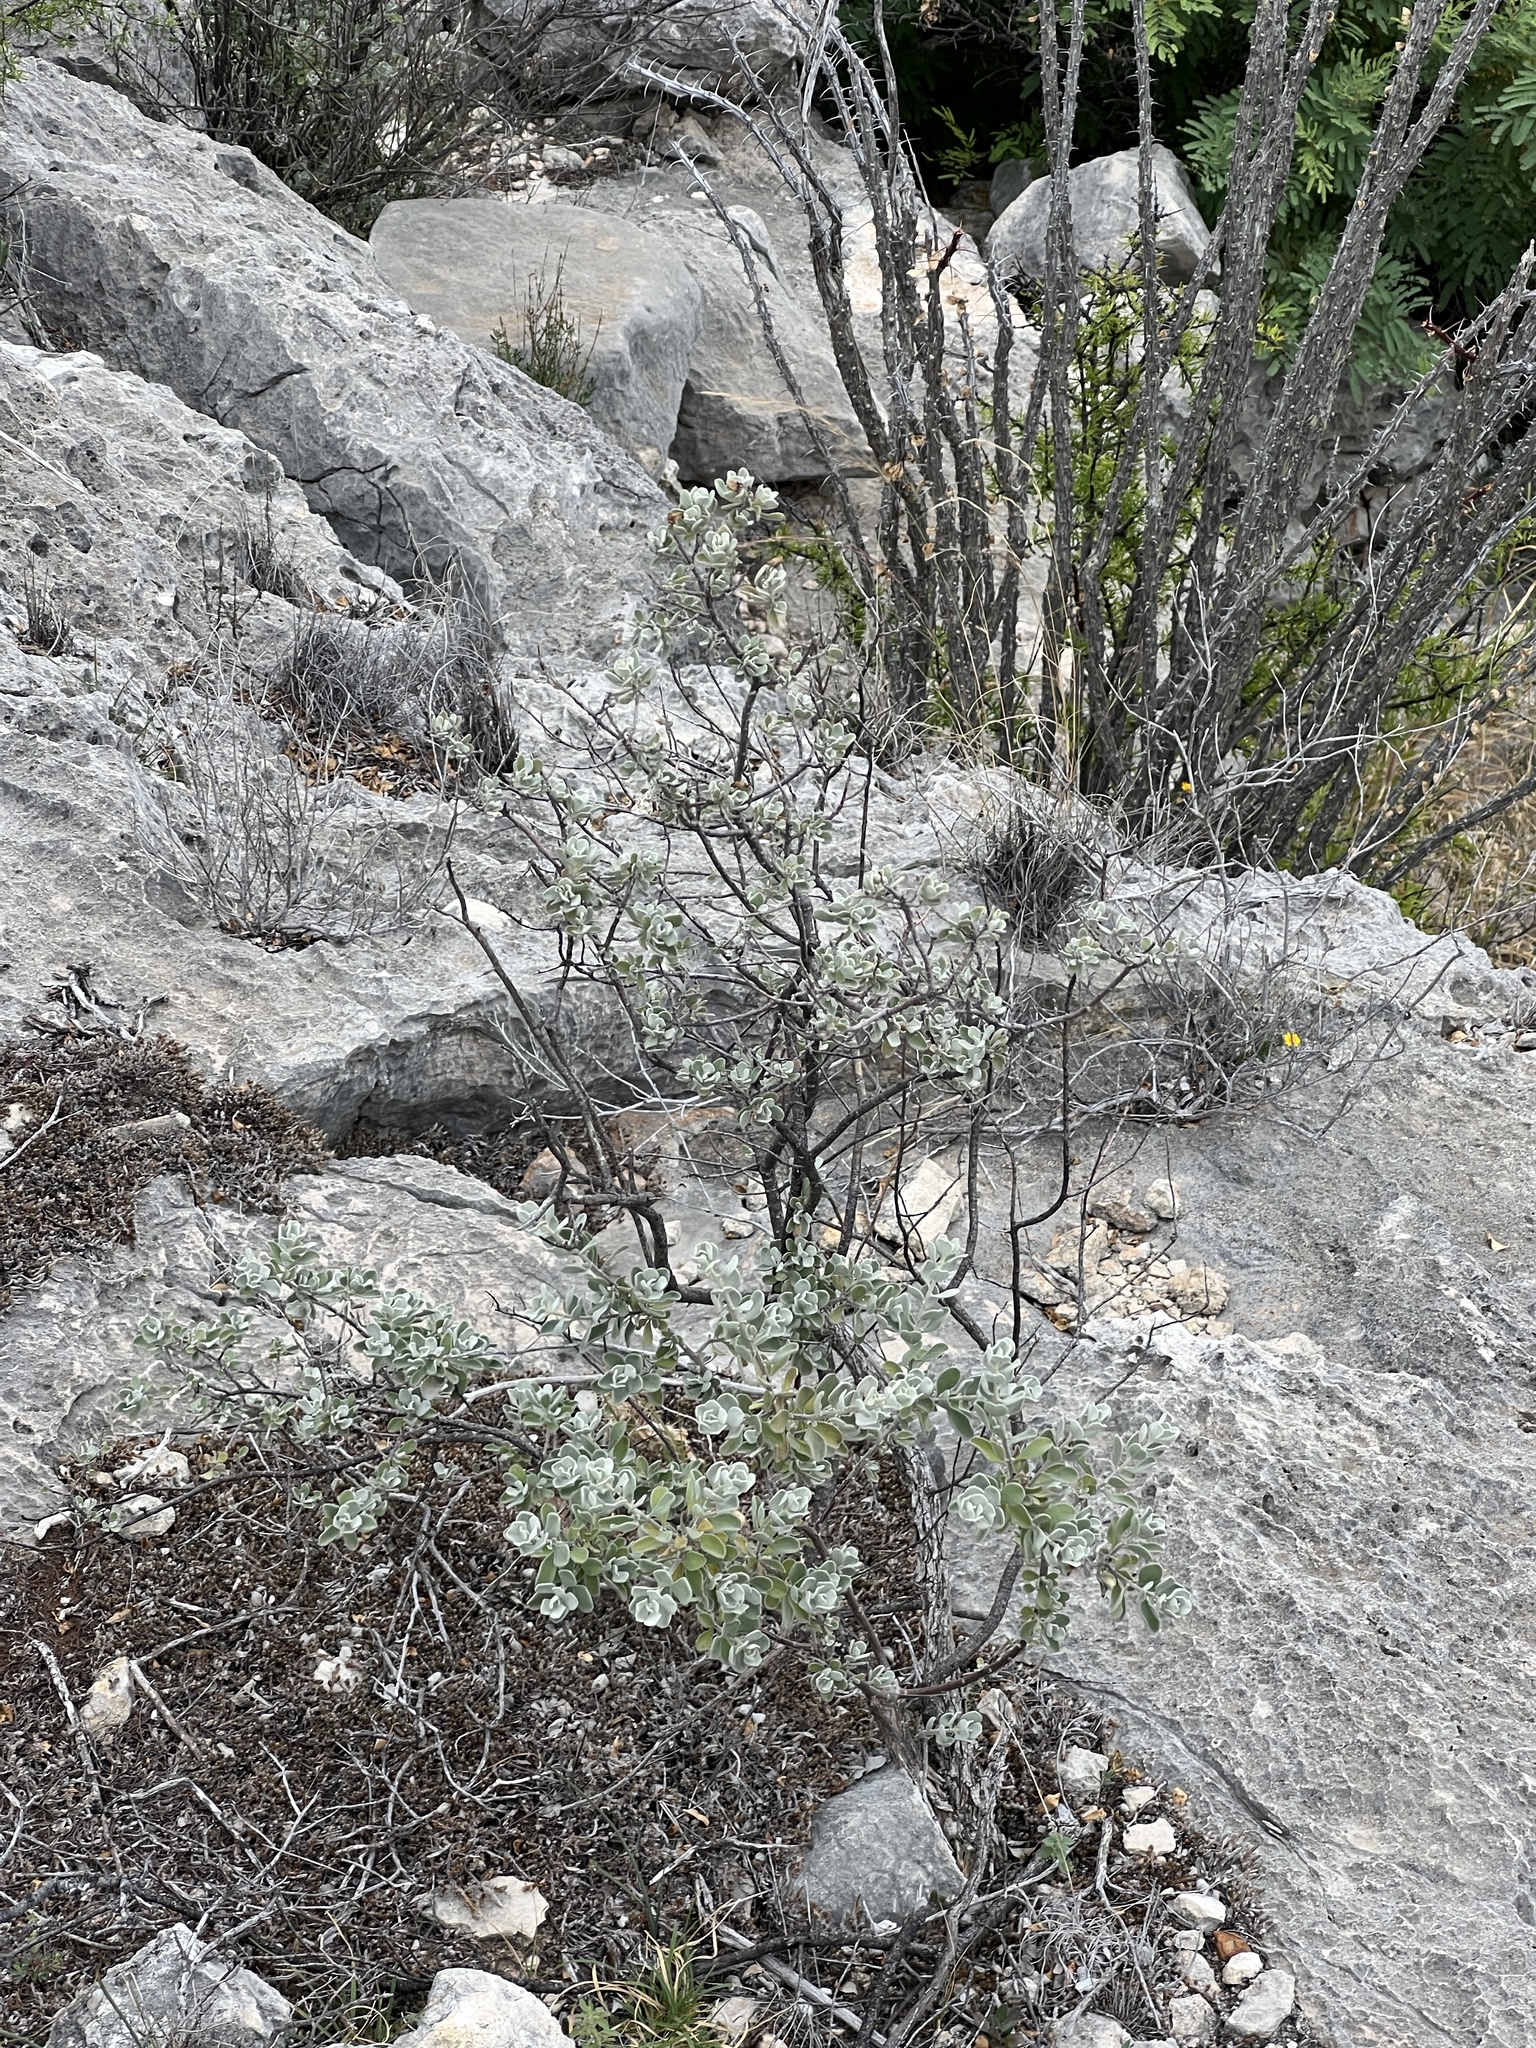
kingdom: Plantae
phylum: Tracheophyta
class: Magnoliopsida
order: Lamiales
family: Scrophulariaceae
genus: Leucophyllum
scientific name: Leucophyllum frutescens
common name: Texas silverleaf
